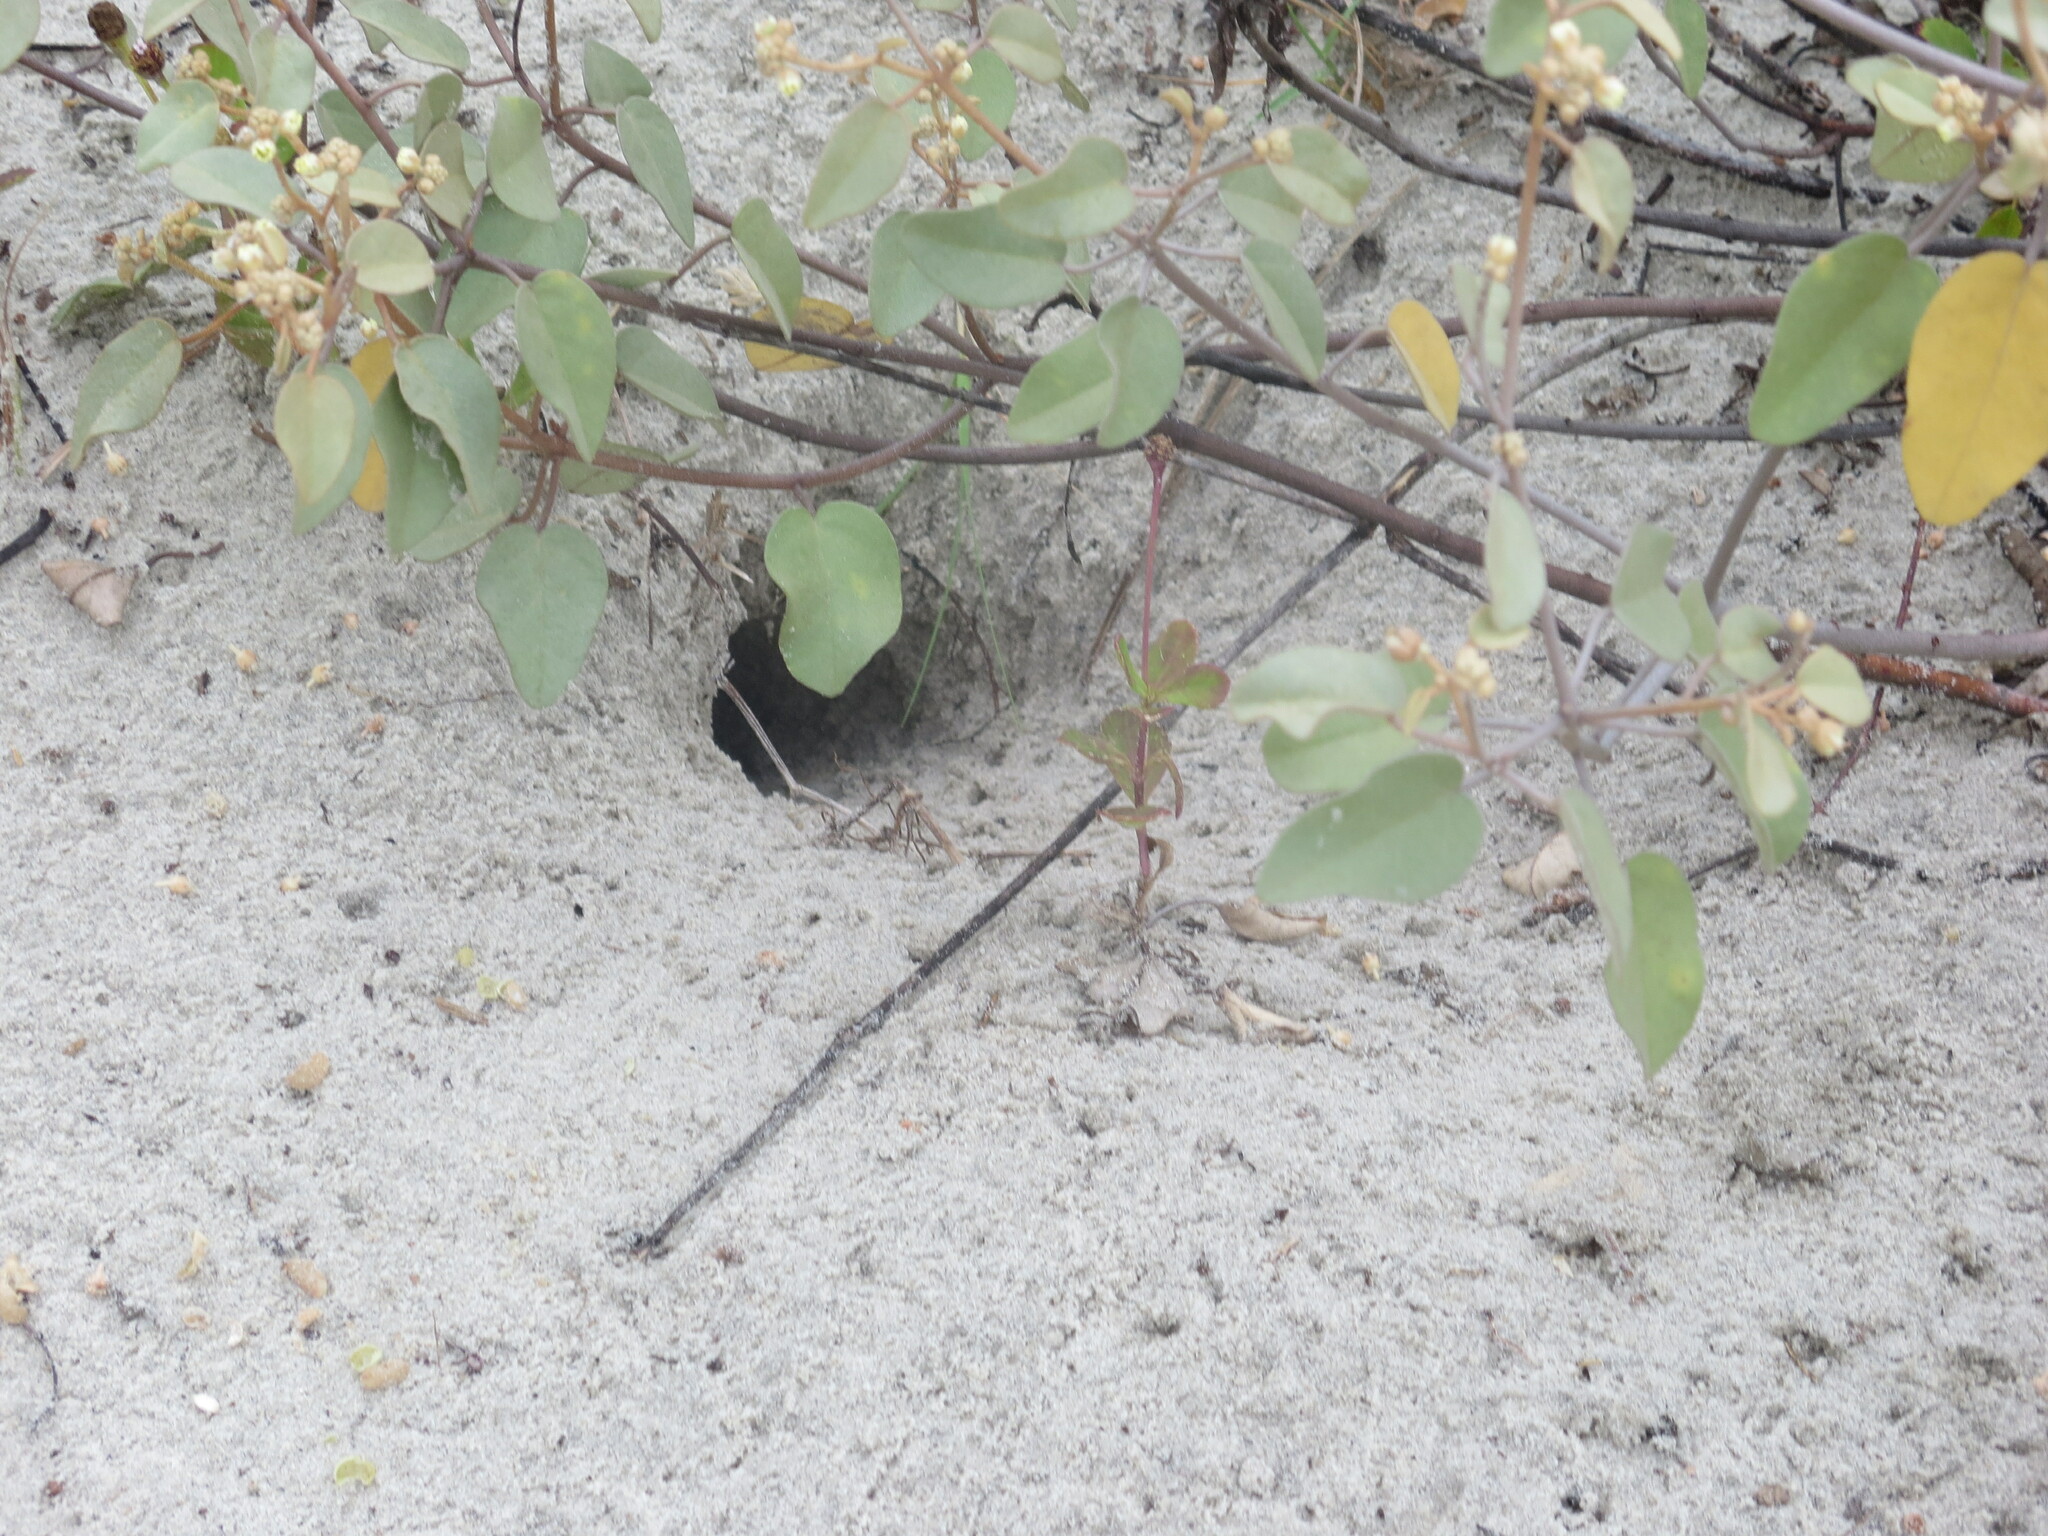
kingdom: Plantae
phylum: Tracheophyta
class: Magnoliopsida
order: Malpighiales
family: Euphorbiaceae
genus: Croton
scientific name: Croton punctatus
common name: Beach-tea
